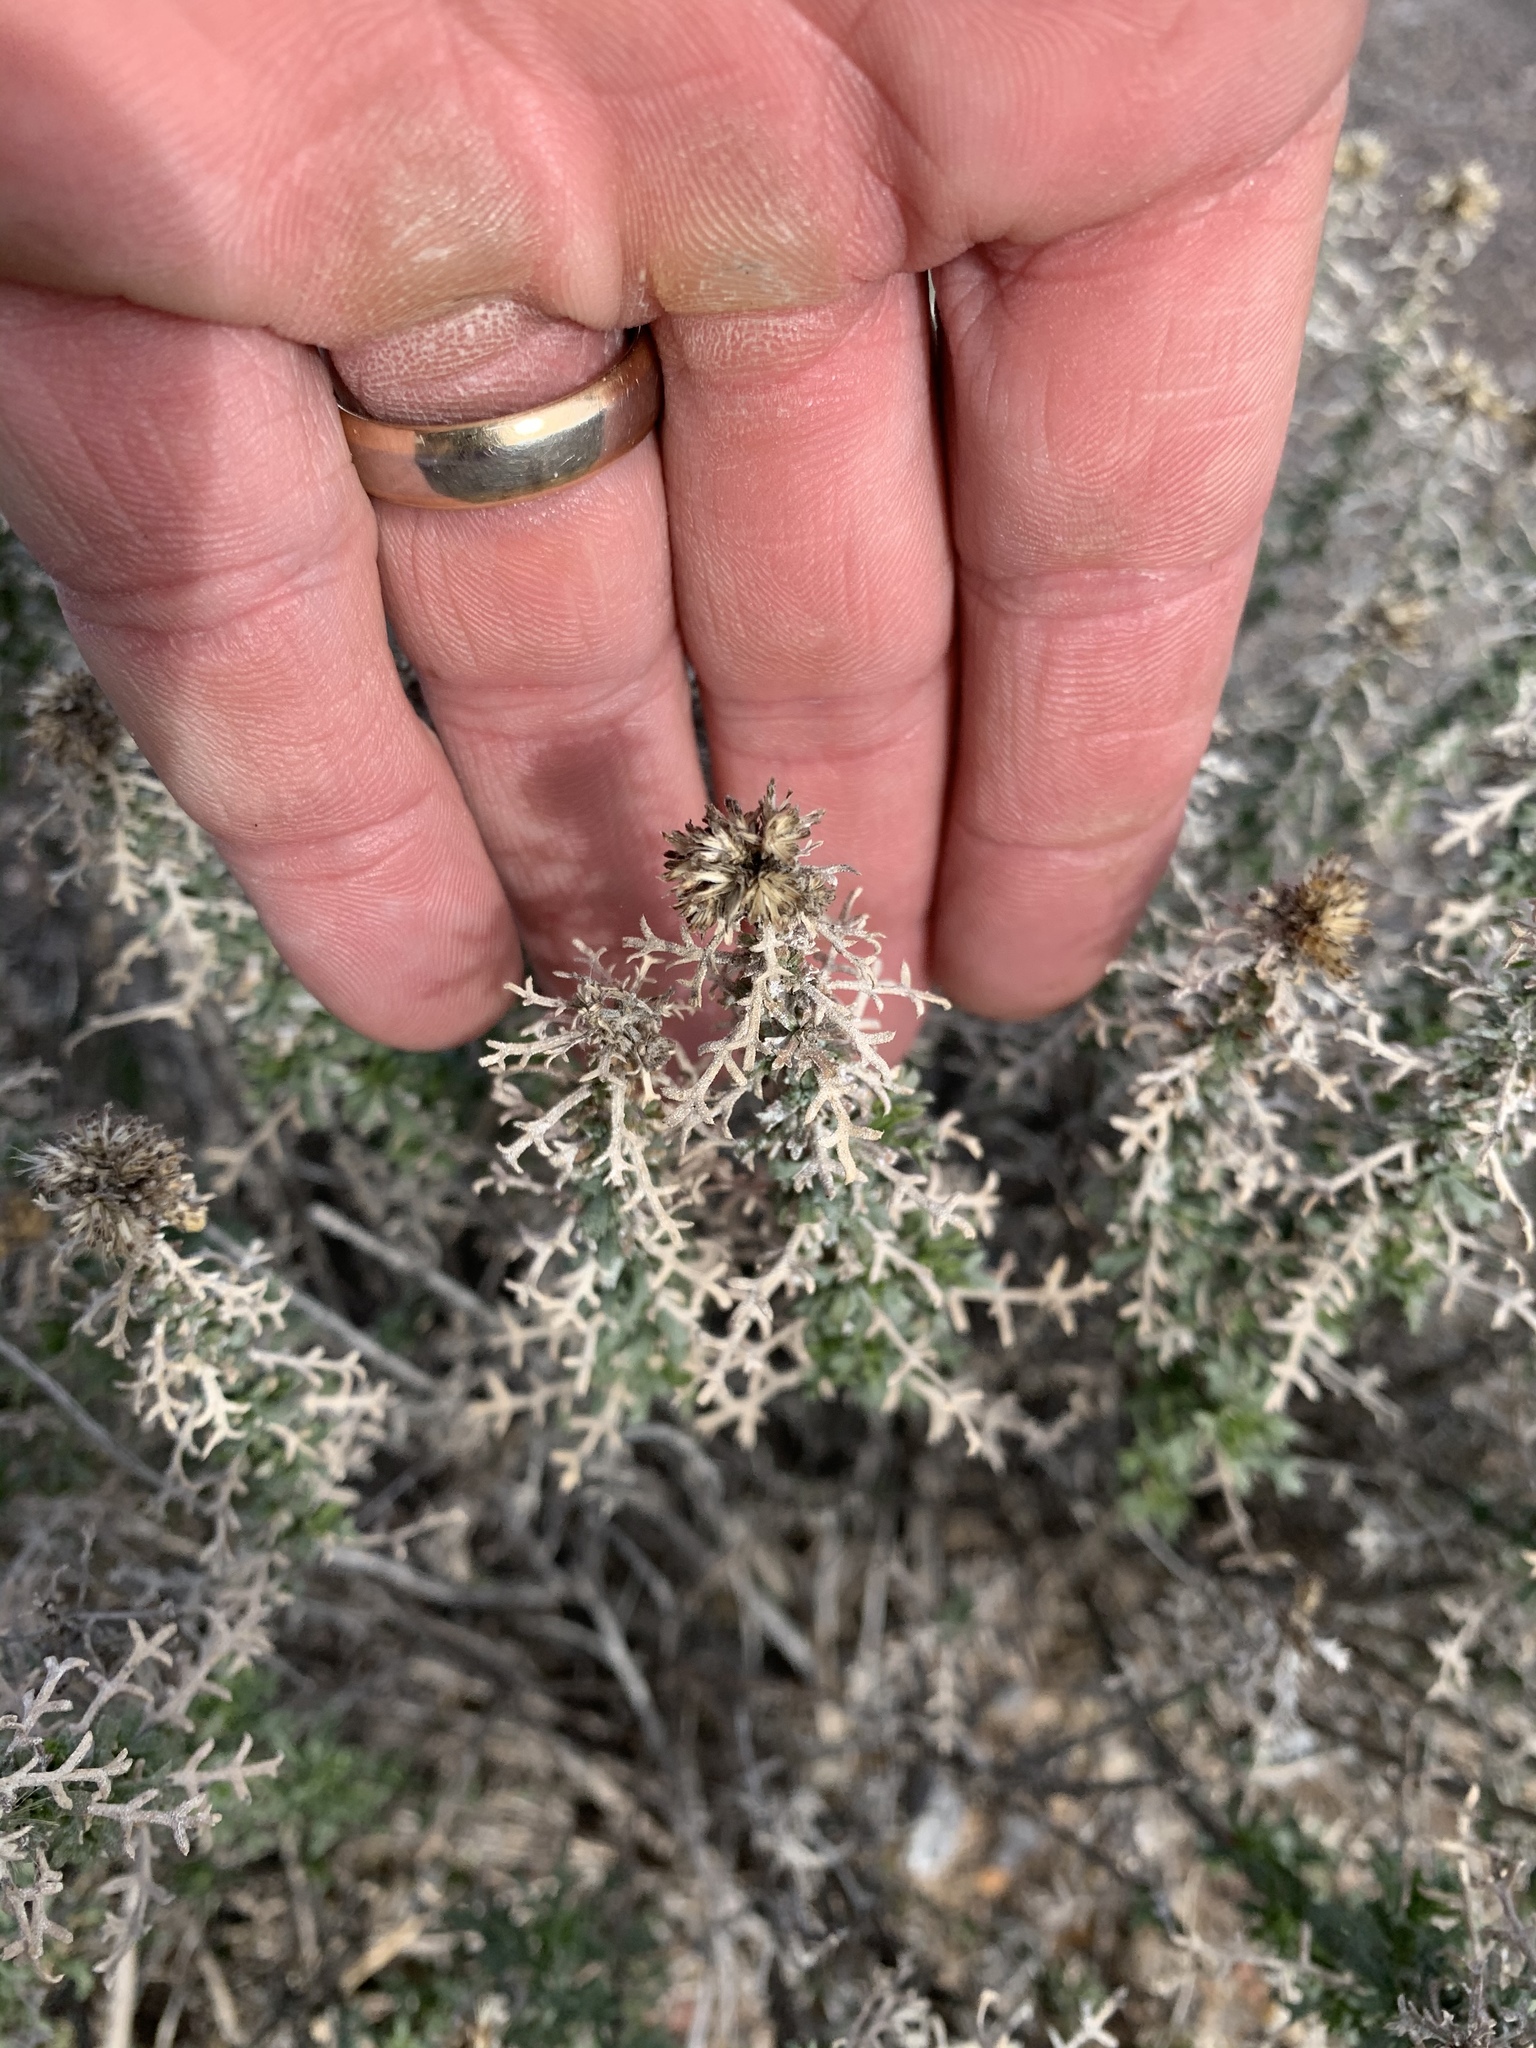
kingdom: Plantae
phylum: Tracheophyta
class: Magnoliopsida
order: Asterales
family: Asteraceae
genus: Isocoma
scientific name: Isocoma tenuisecta
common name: Burroweed
